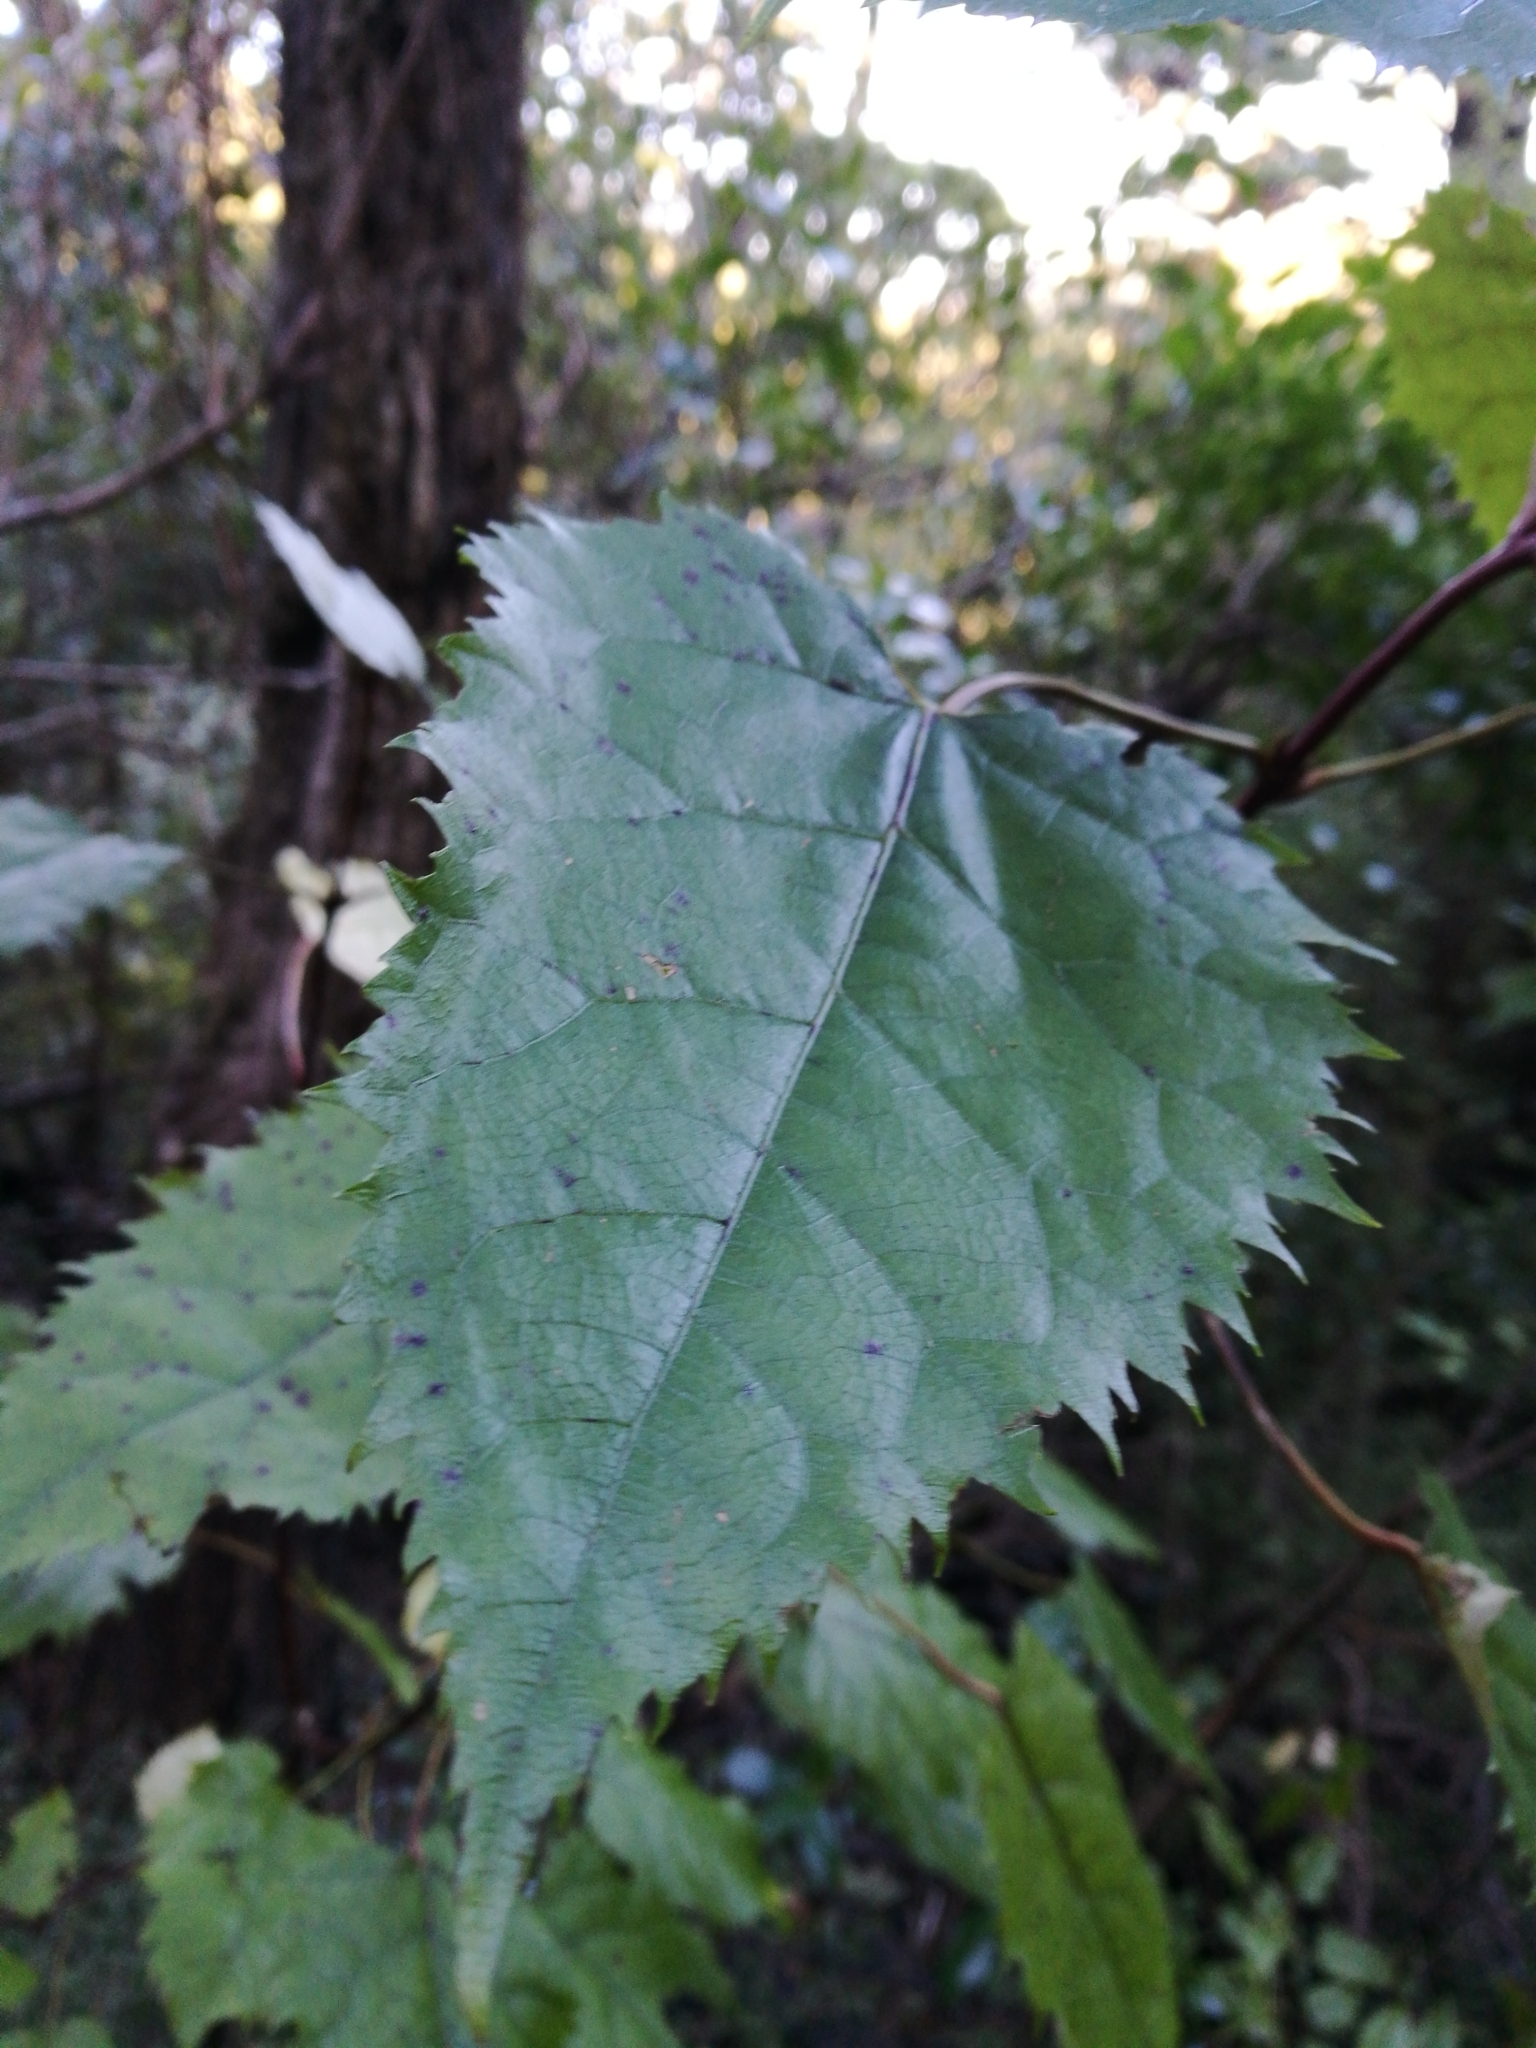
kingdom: Plantae
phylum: Tracheophyta
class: Magnoliopsida
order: Oxalidales
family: Elaeocarpaceae
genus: Aristotelia
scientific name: Aristotelia serrata
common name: New zealand wineberry
